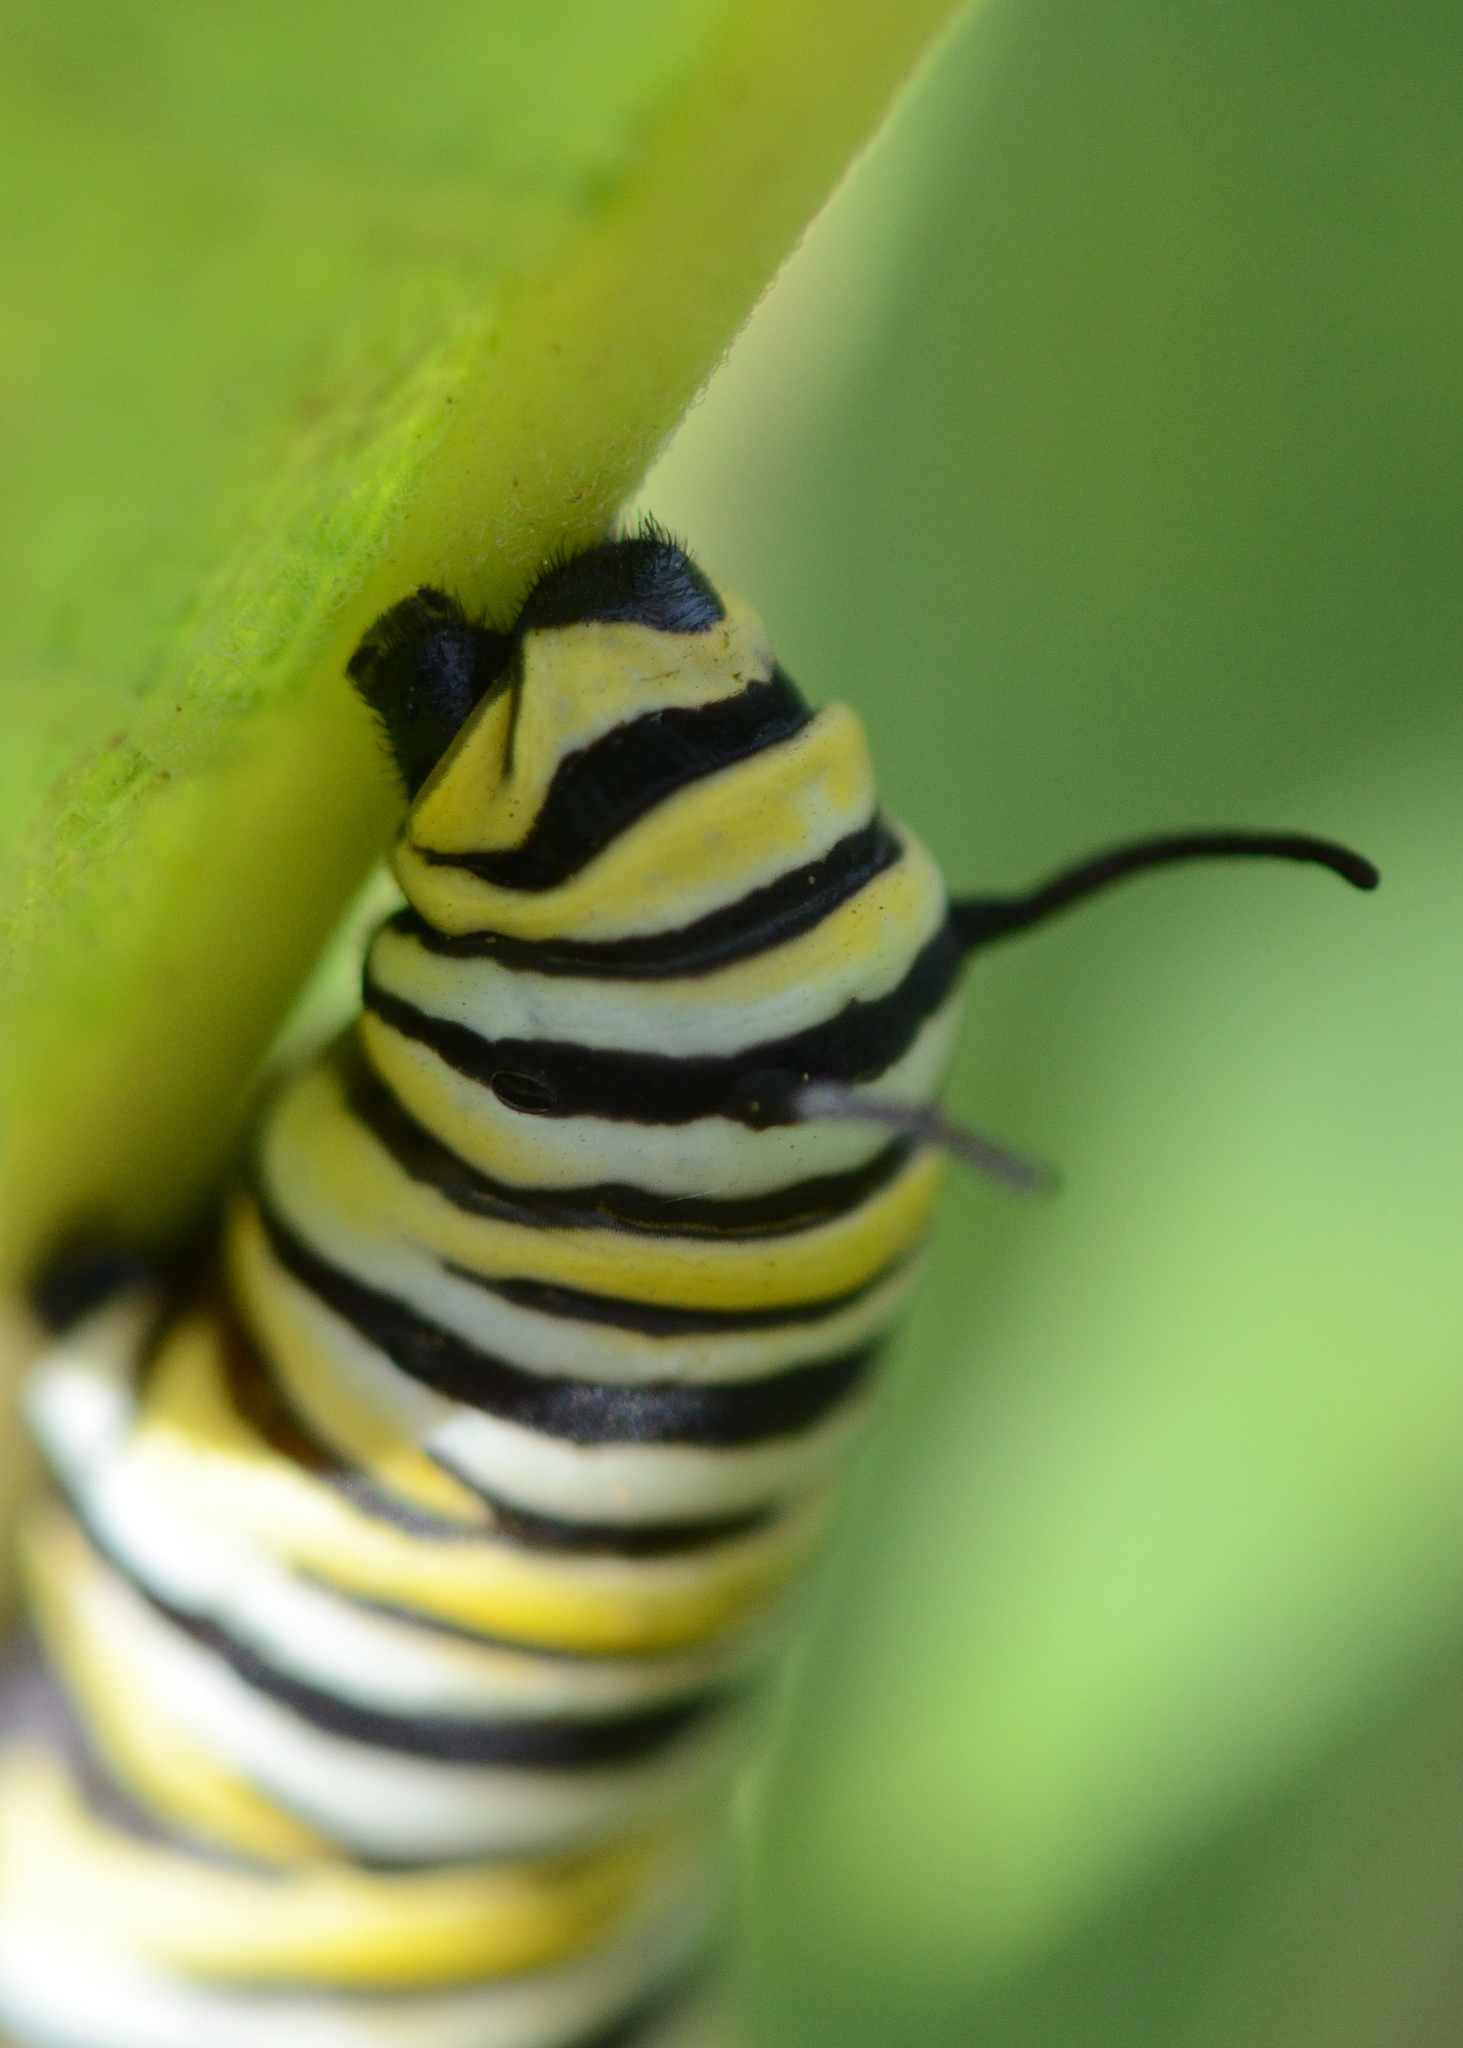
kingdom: Animalia
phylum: Arthropoda
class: Insecta
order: Lepidoptera
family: Nymphalidae
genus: Danaus
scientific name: Danaus plexippus
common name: Monarch
